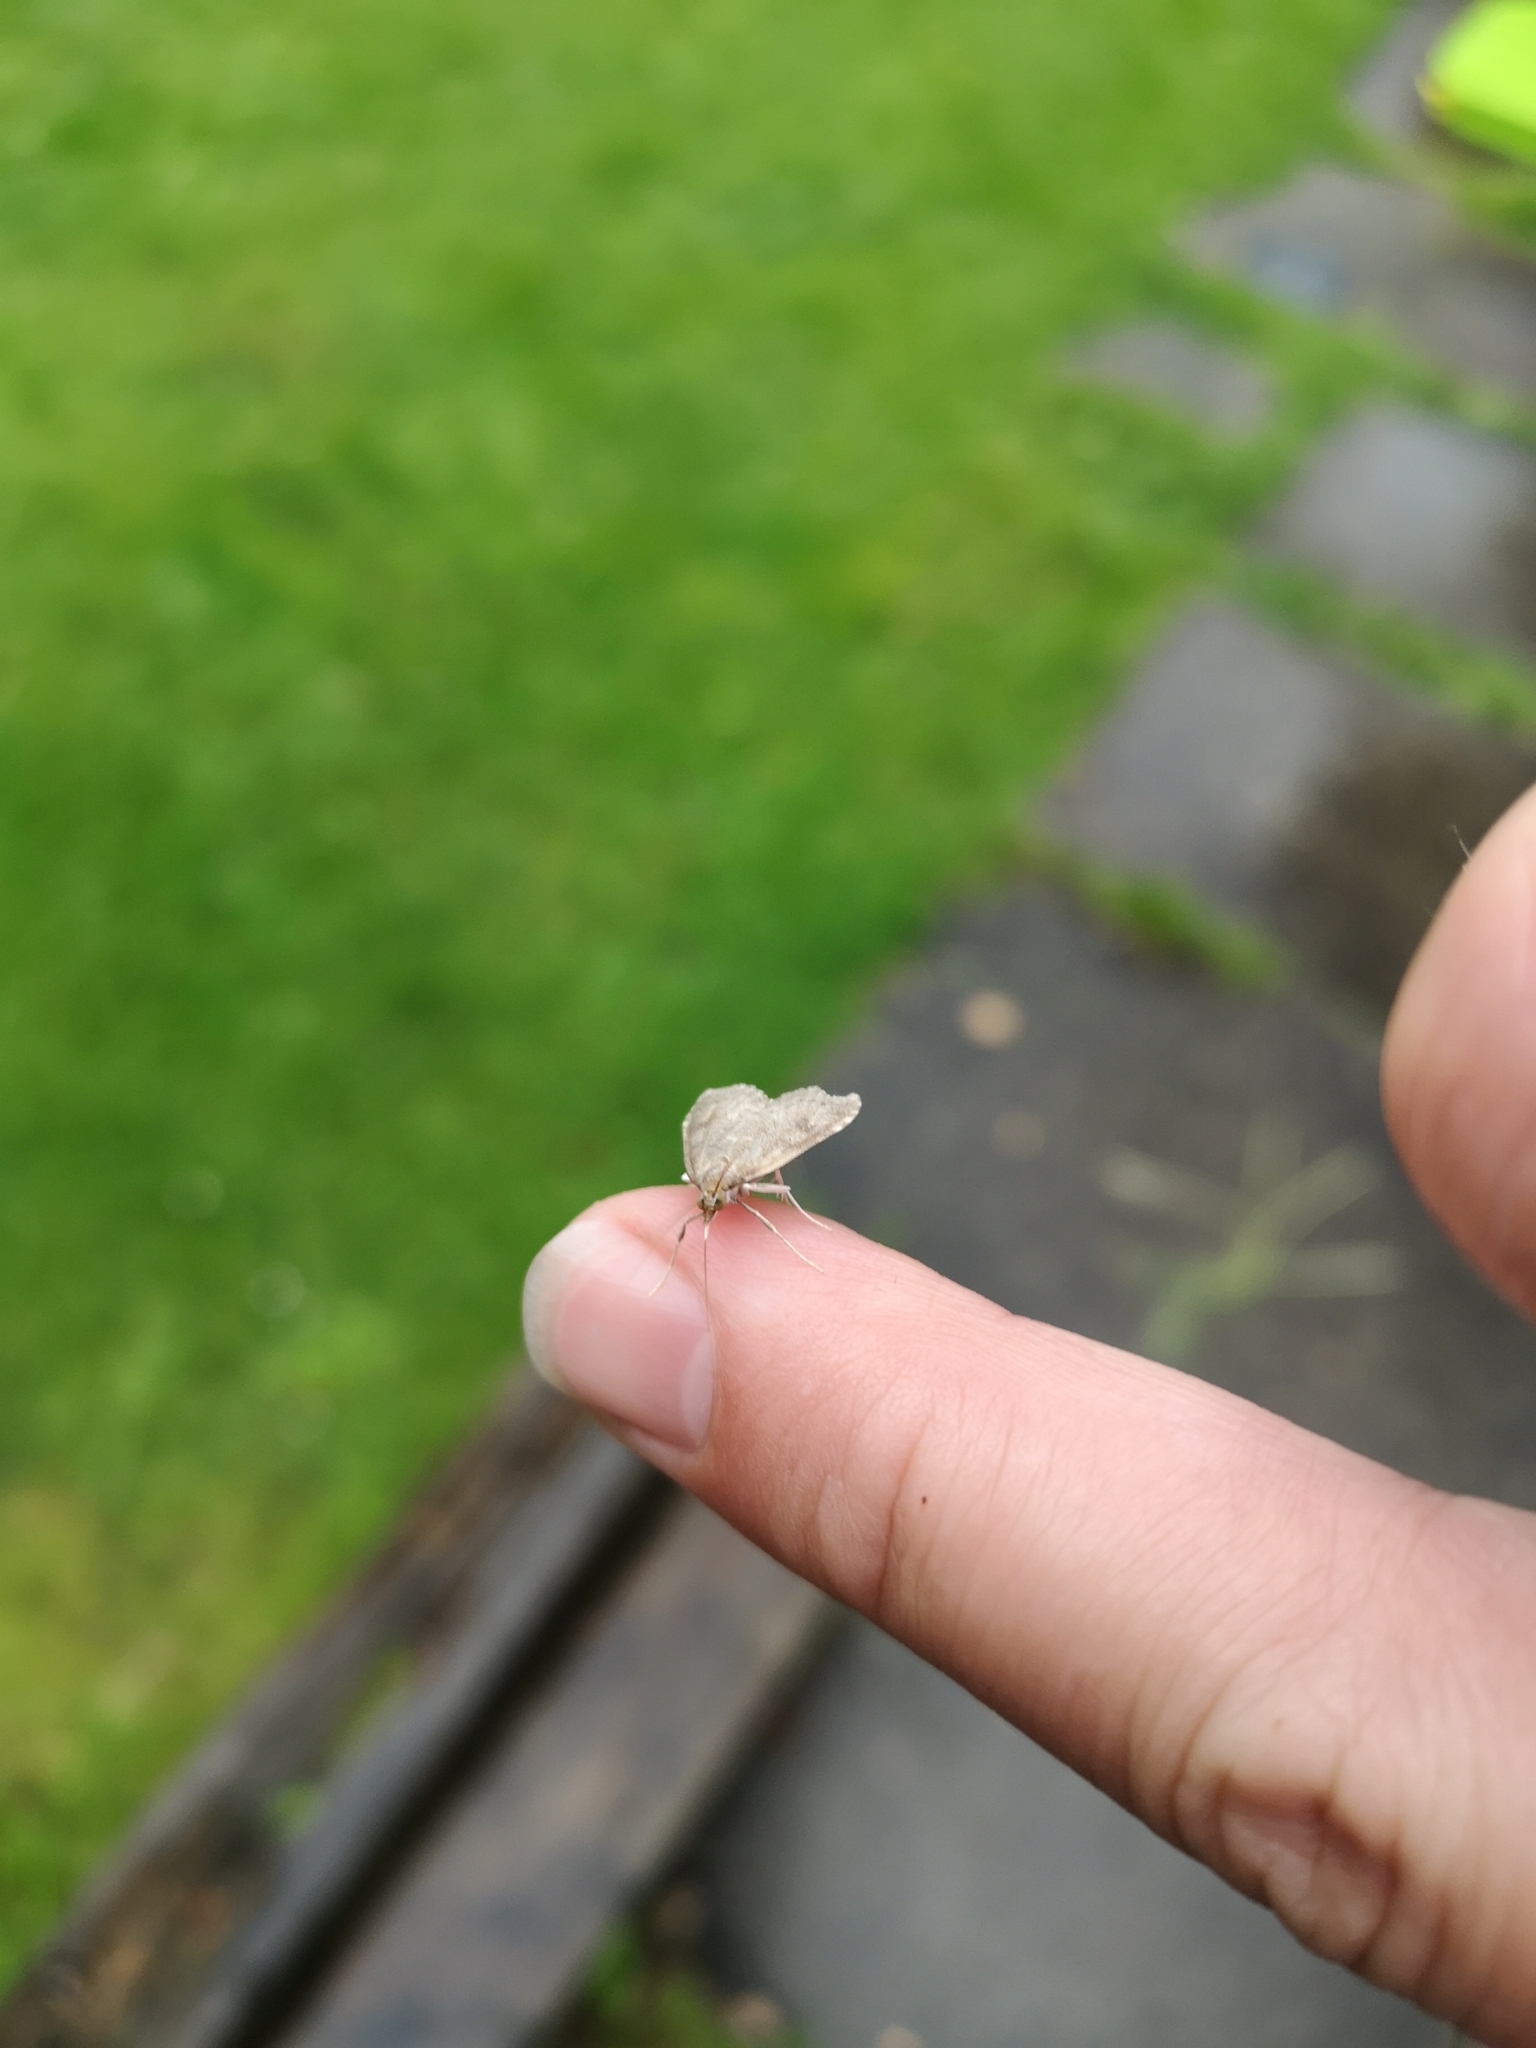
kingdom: Animalia
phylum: Arthropoda
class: Insecta
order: Lepidoptera
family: Crambidae
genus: Udea
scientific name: Udea prunalis
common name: Dusky pearl
